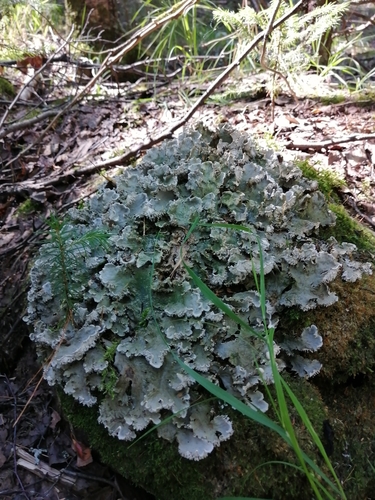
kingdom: Fungi
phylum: Ascomycota
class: Lecanoromycetes
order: Peltigerales
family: Peltigeraceae
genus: Peltigera
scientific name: Peltigera canina
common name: Dog pelt lichen
